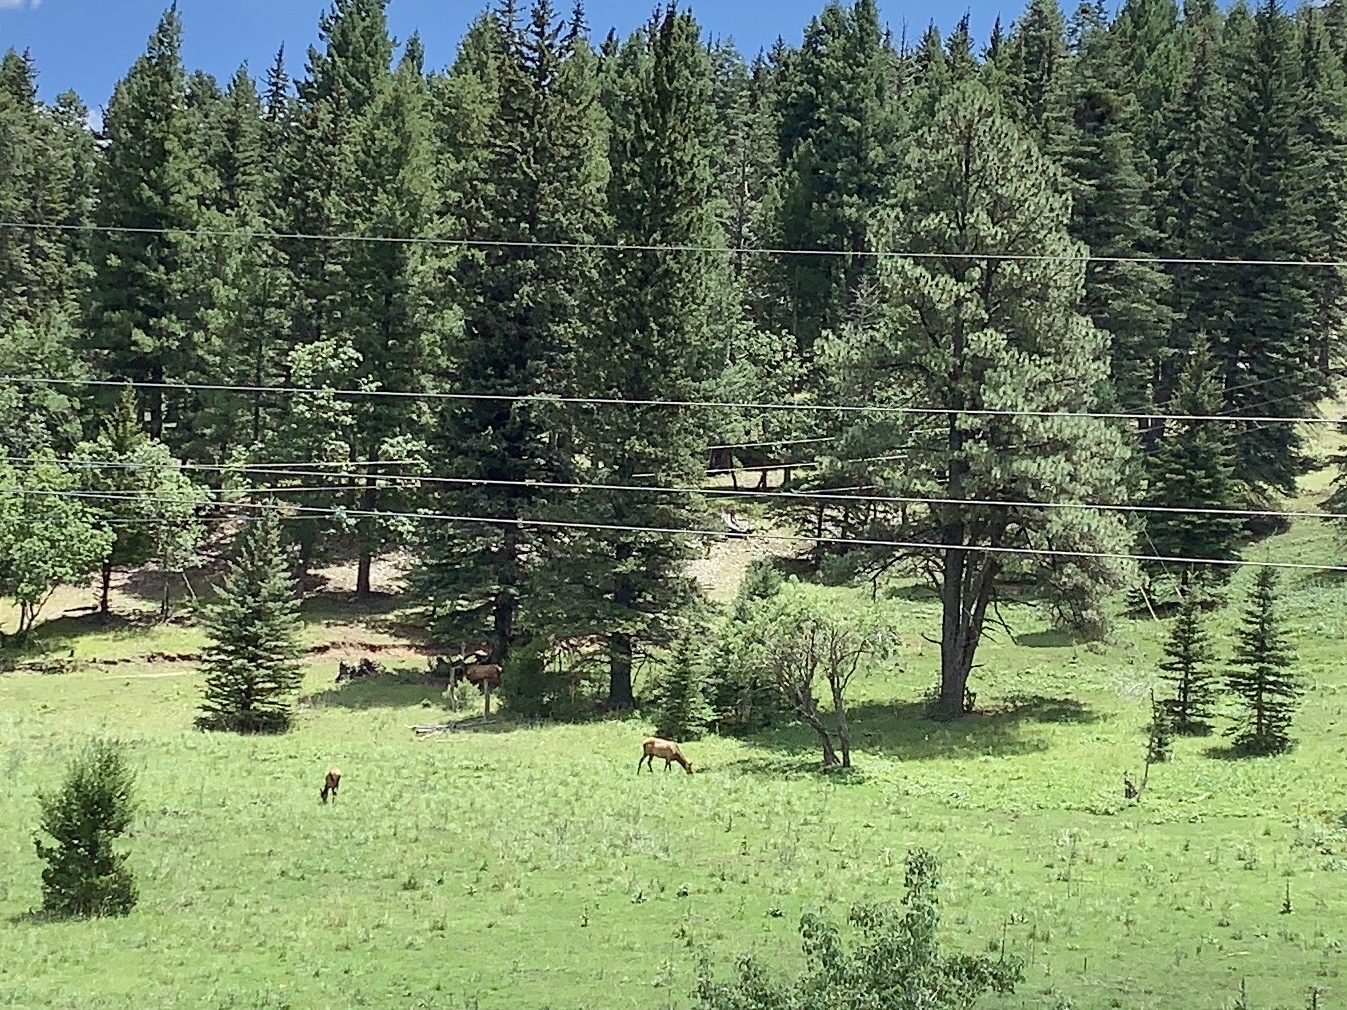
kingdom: Animalia
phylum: Chordata
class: Mammalia
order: Artiodactyla
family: Cervidae
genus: Cervus
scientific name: Cervus elaphus
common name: Red deer
